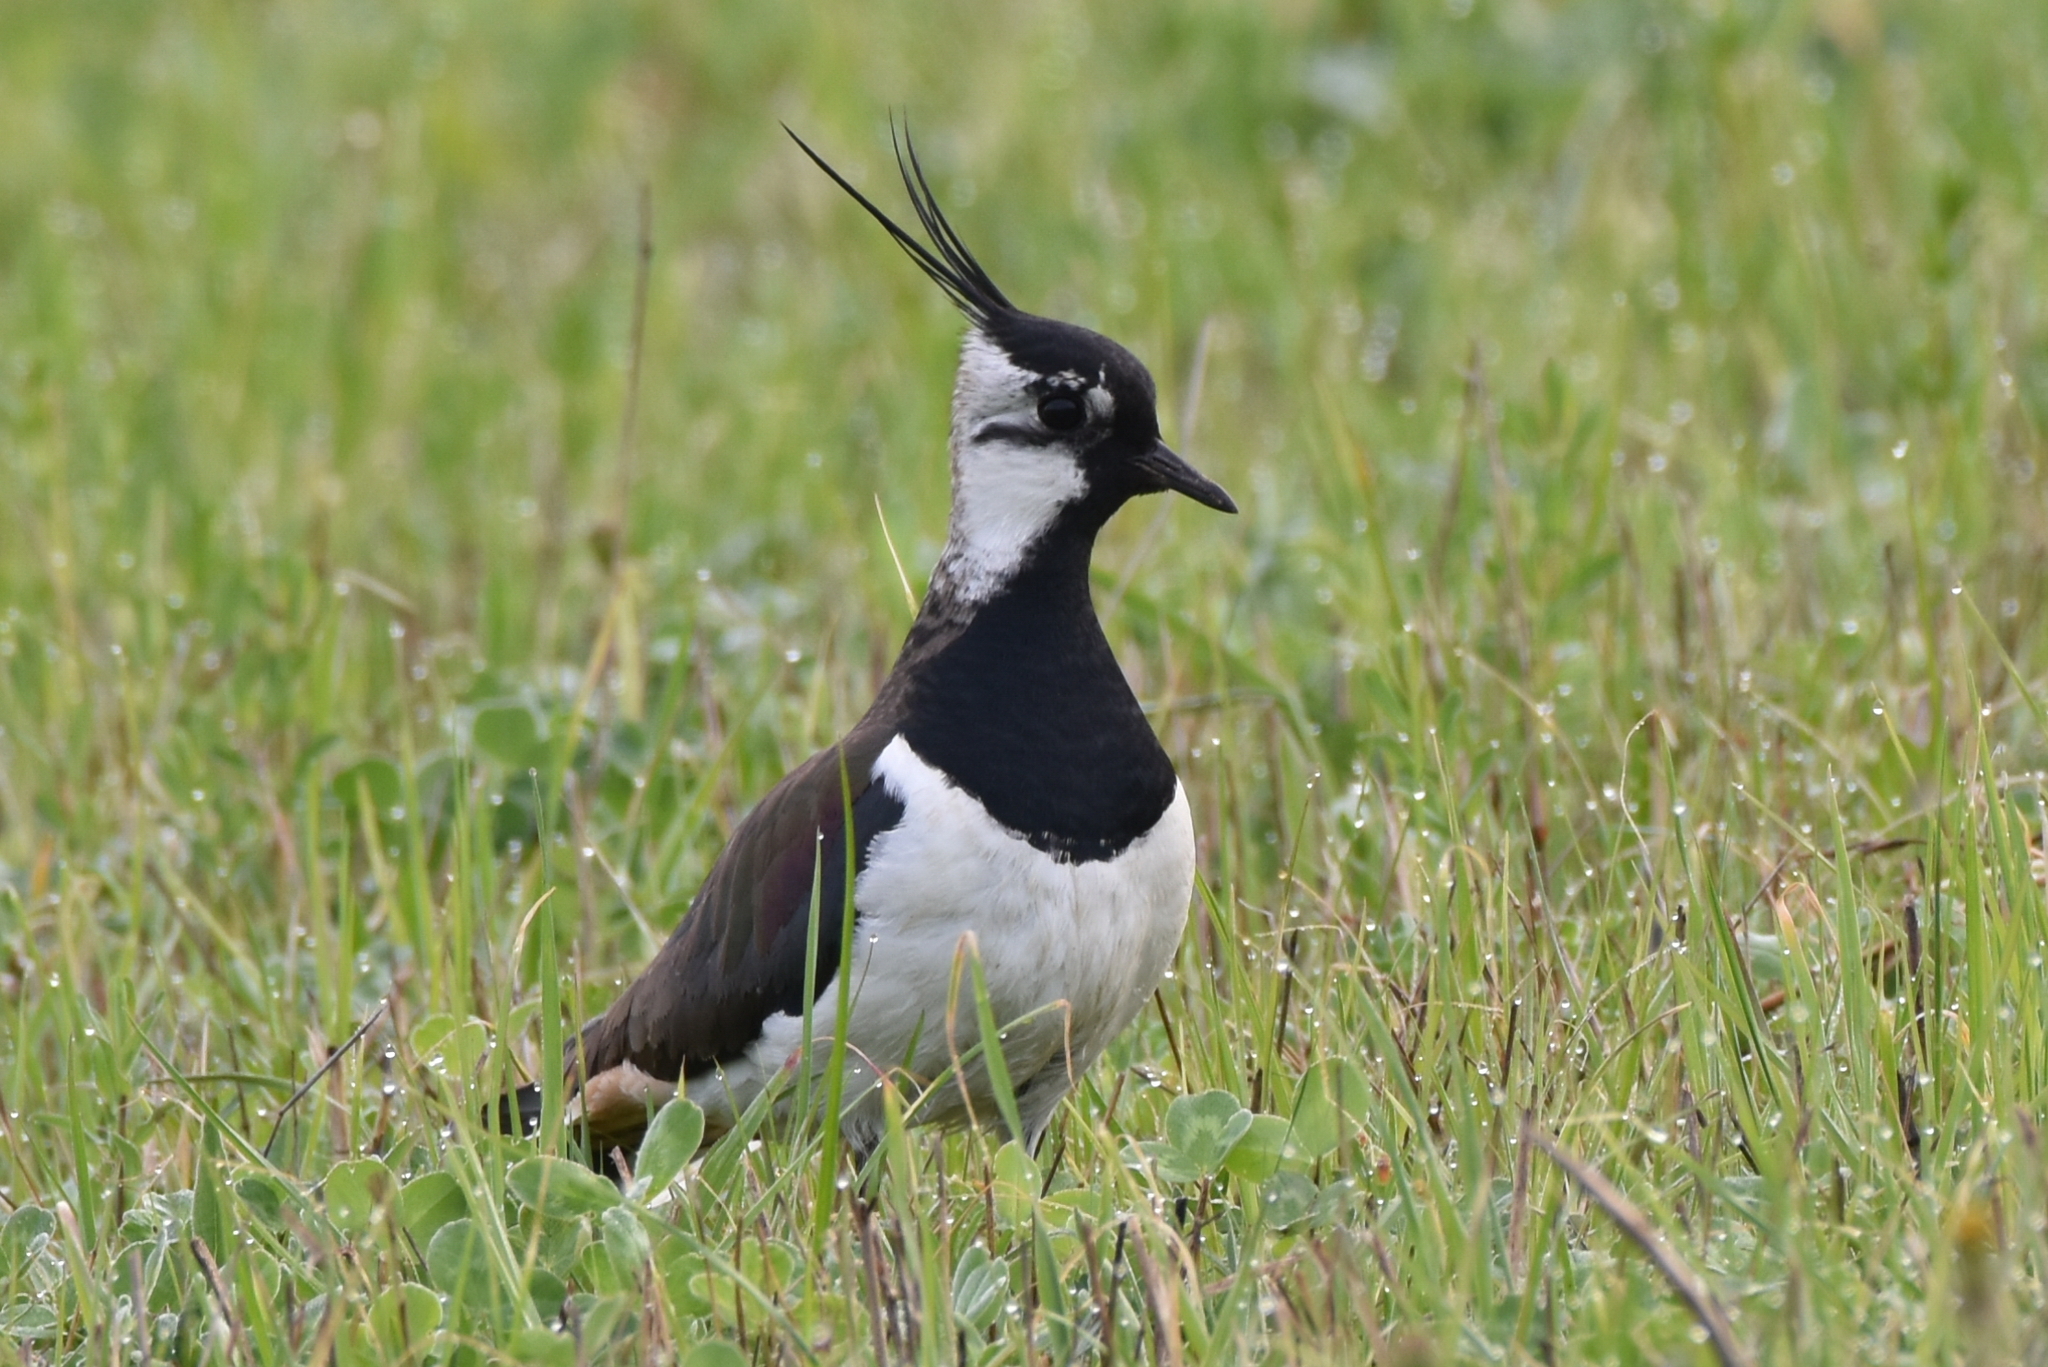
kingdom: Animalia
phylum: Chordata
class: Aves
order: Charadriiformes
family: Charadriidae
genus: Vanellus
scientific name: Vanellus vanellus
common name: Northern lapwing
